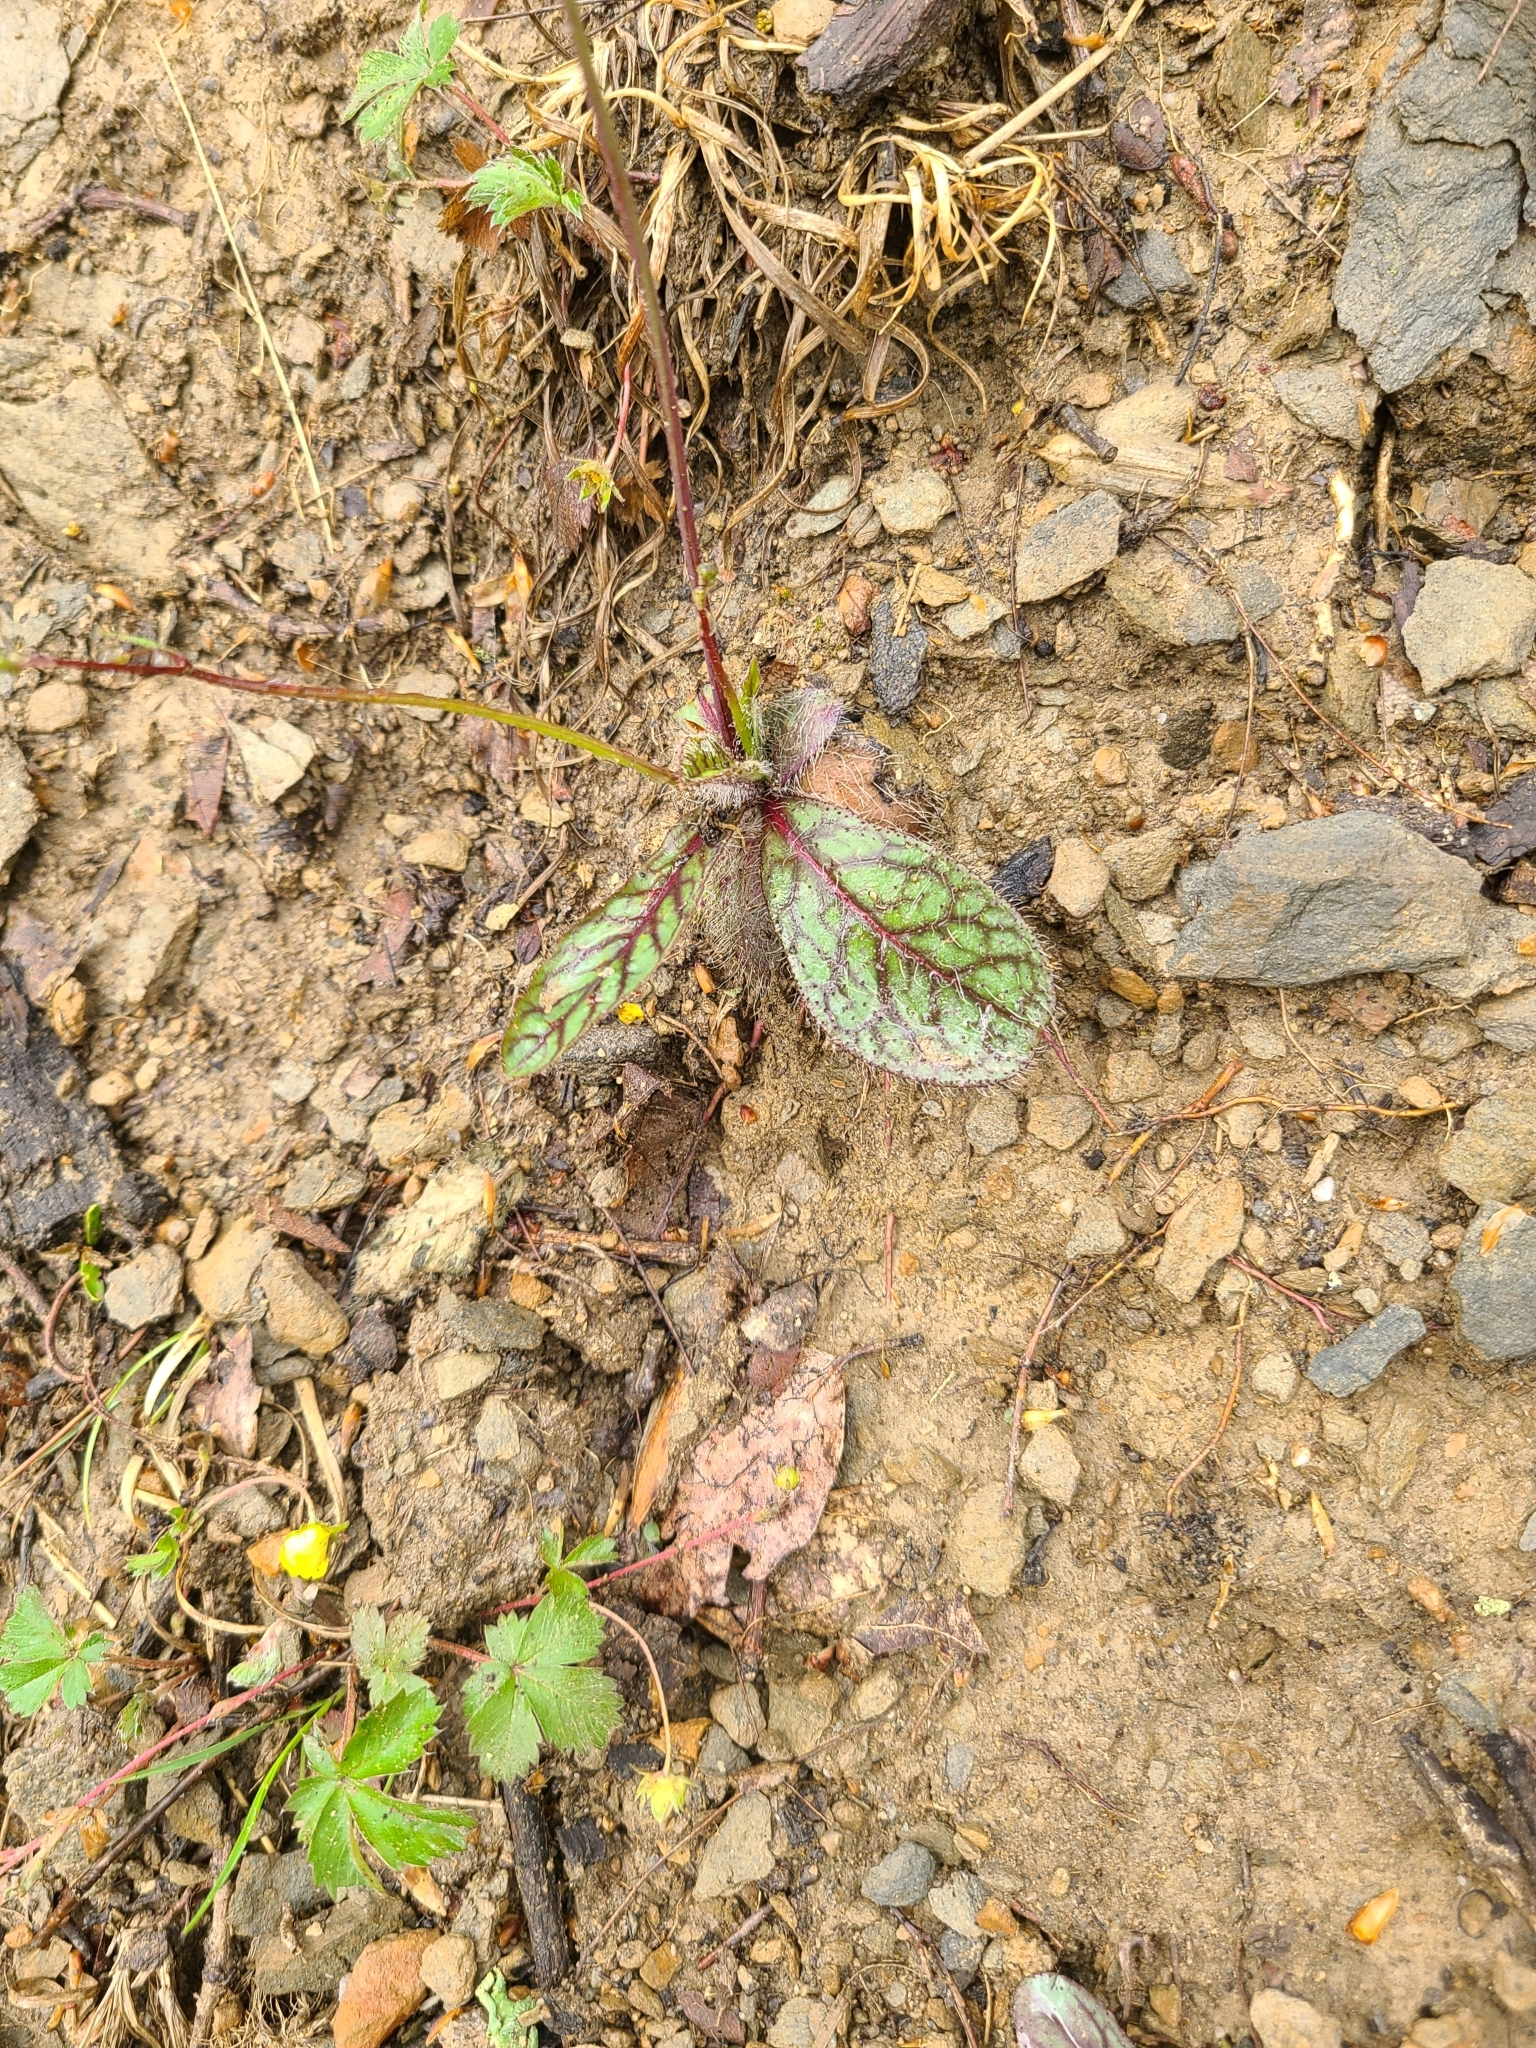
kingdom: Plantae
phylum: Tracheophyta
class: Magnoliopsida
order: Asterales
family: Asteraceae
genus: Hieracium
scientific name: Hieracium venosum
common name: Rattlesnake hawkweed
